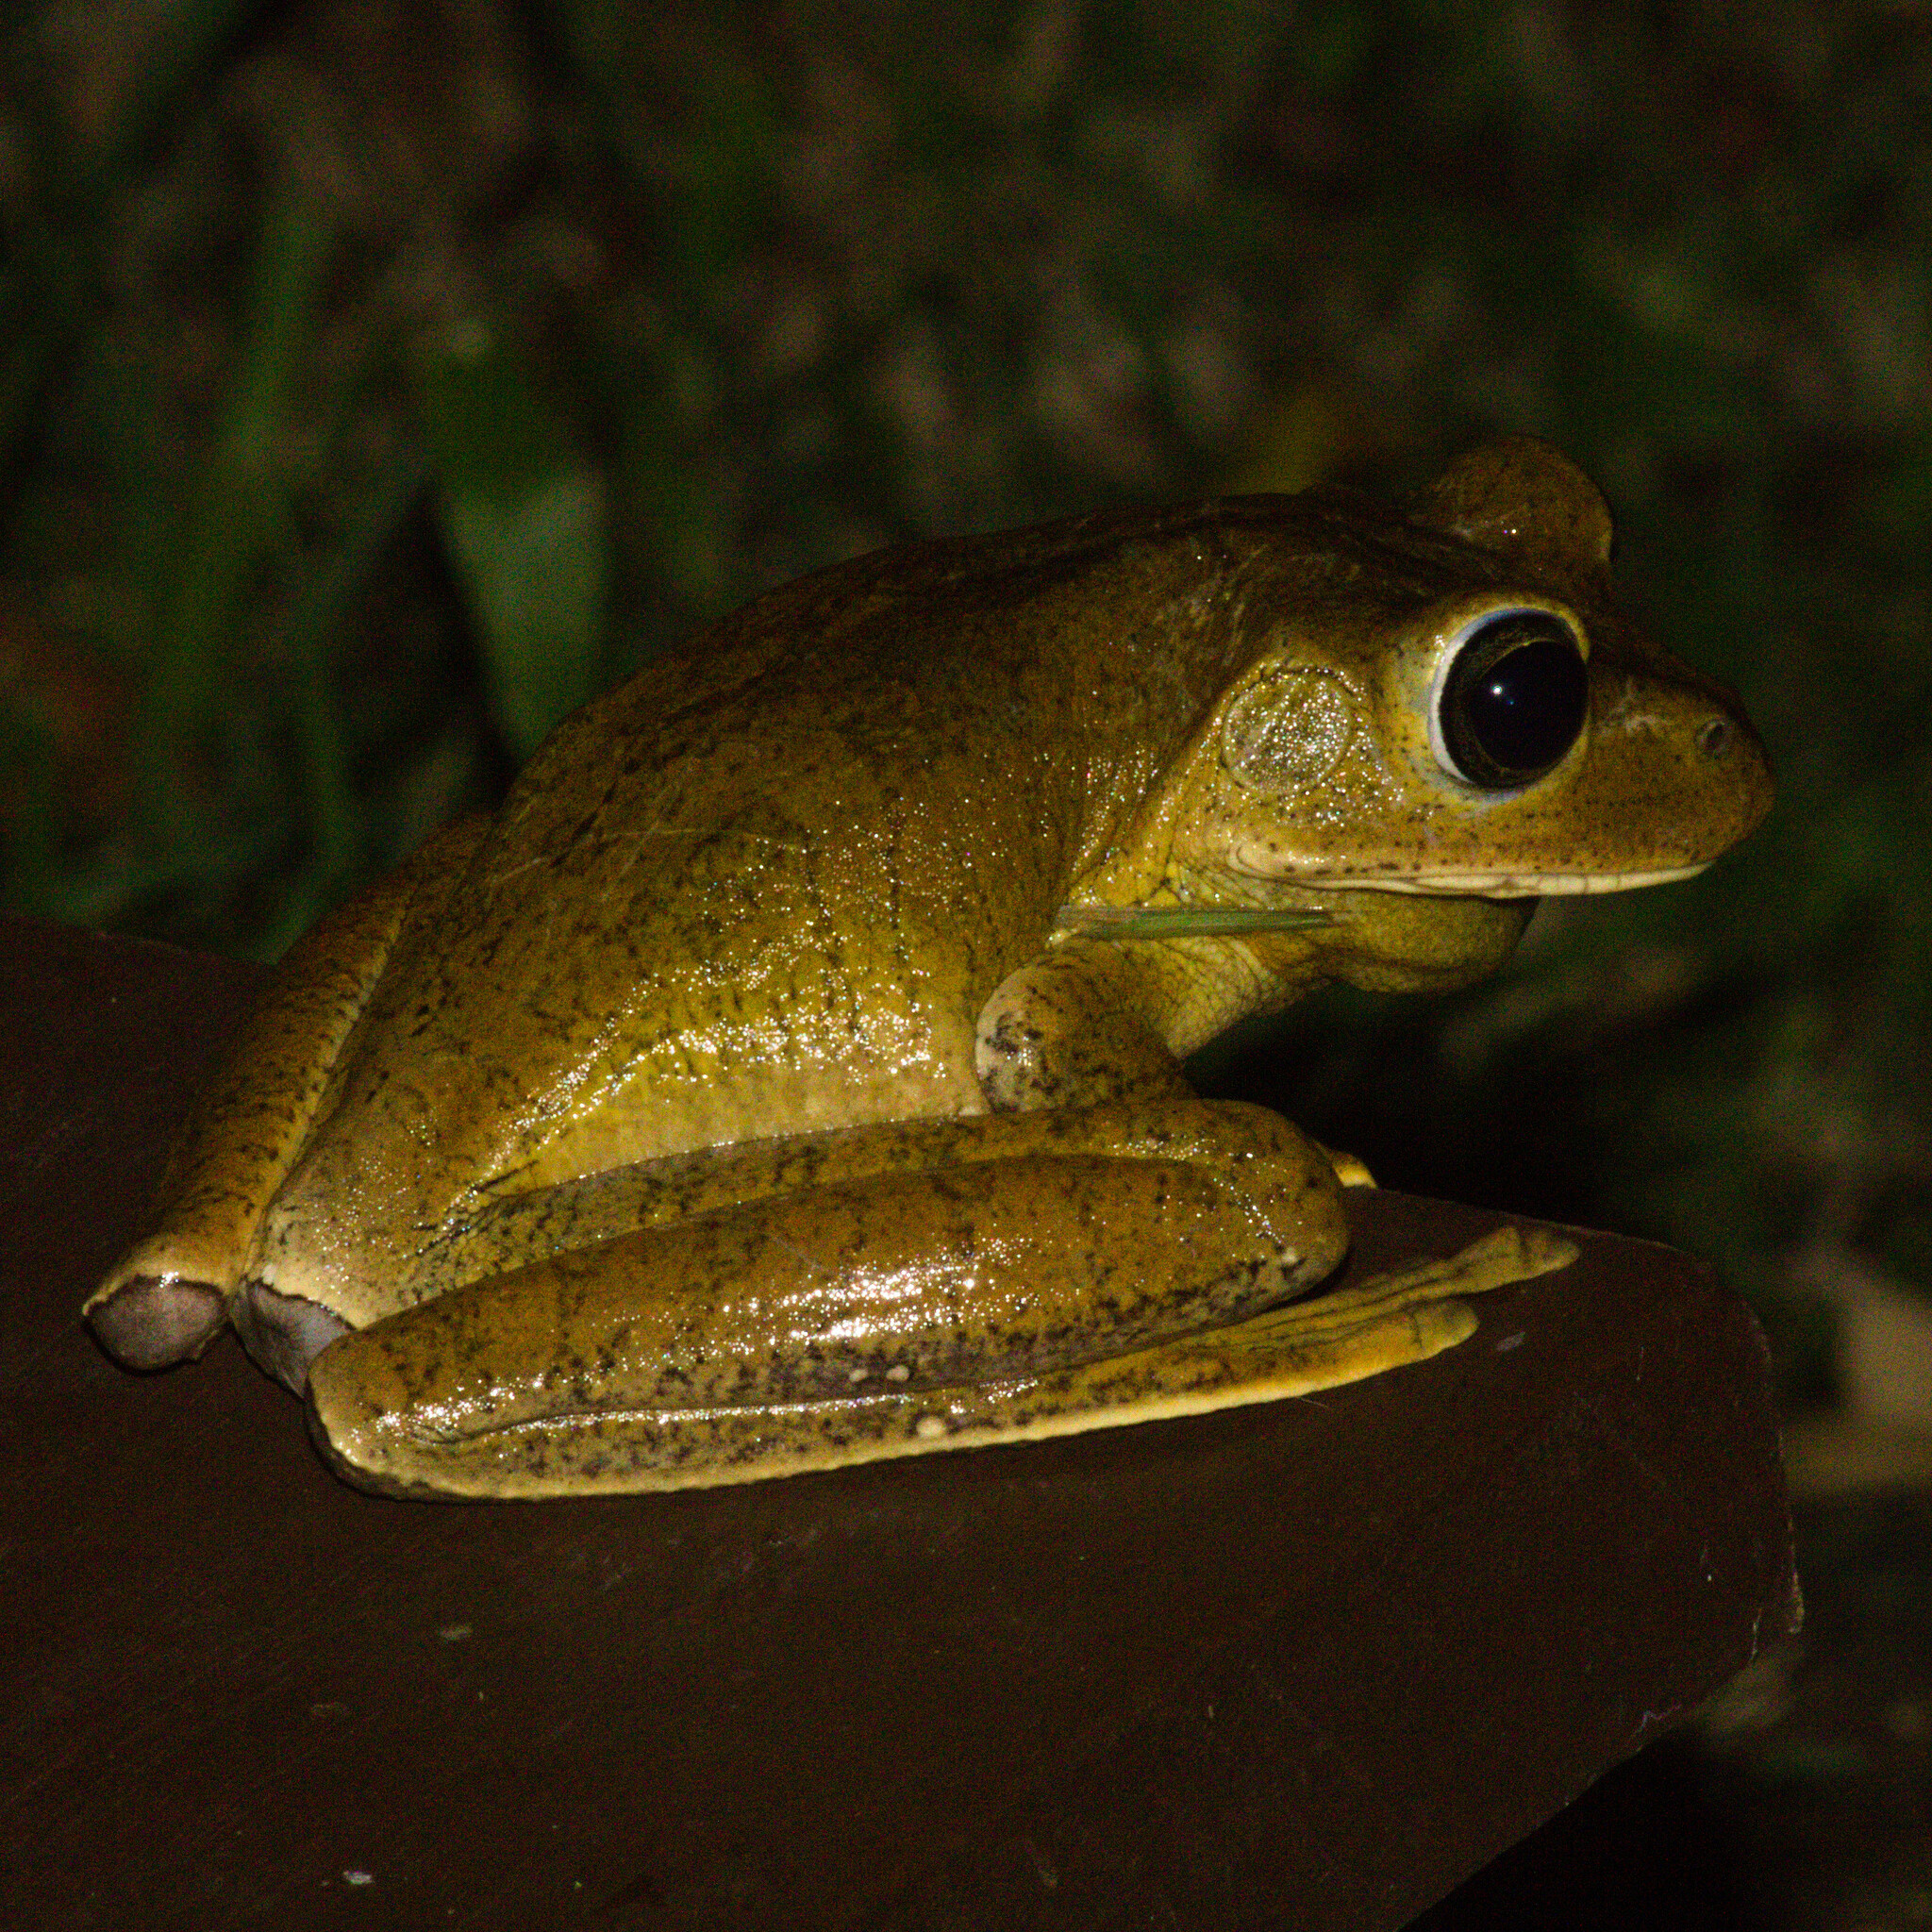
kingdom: Animalia
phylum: Chordata
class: Amphibia
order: Anura
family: Hylidae
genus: Boana
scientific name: Boana faber
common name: Blacksmith tree frog
